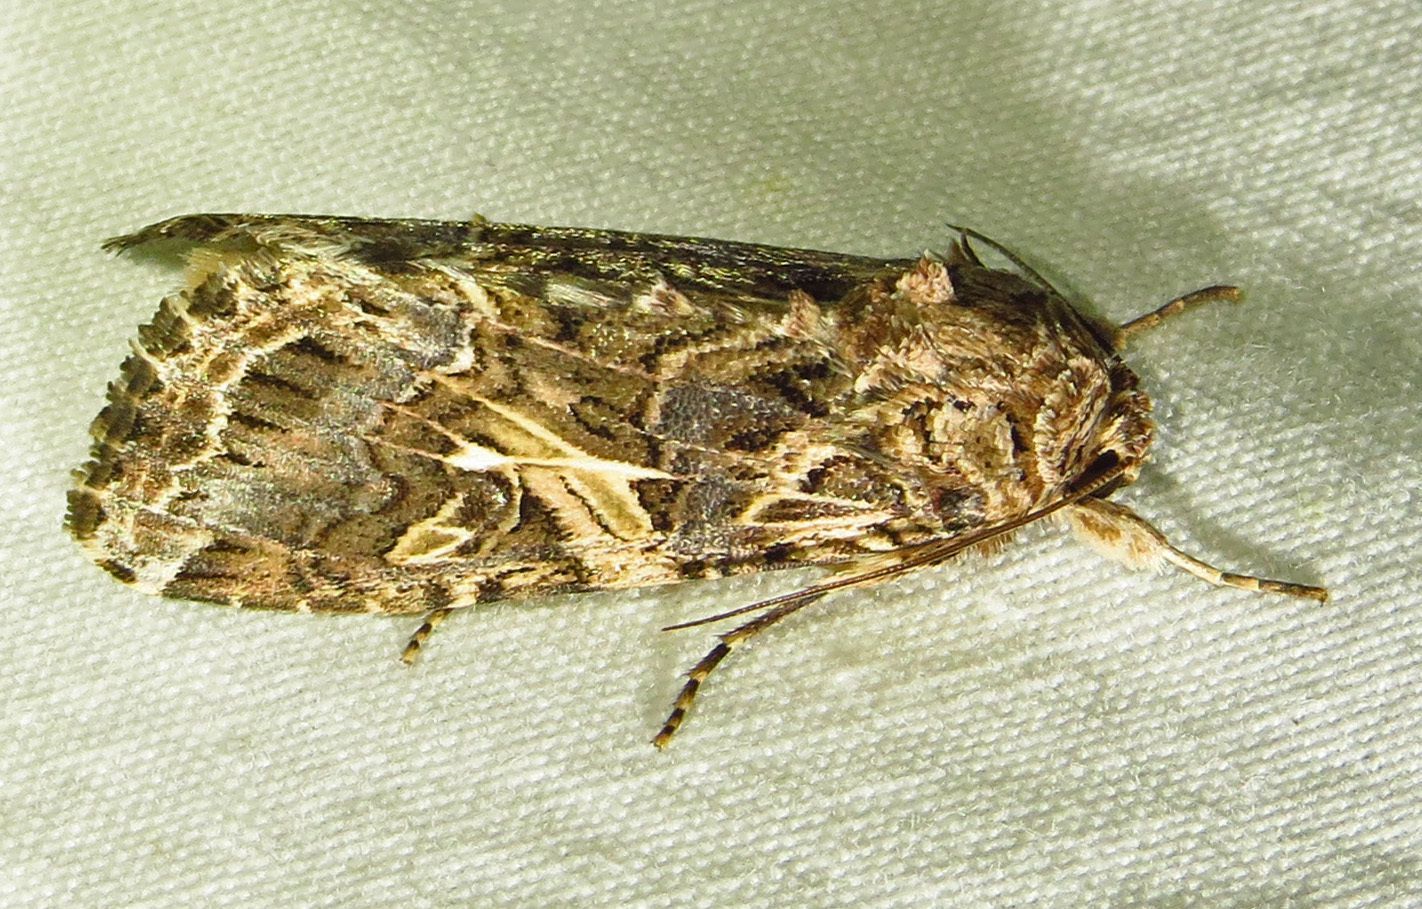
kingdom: Animalia
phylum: Arthropoda
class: Insecta
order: Lepidoptera
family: Noctuidae
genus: Spodoptera
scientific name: Spodoptera ornithogalli
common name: Yellow-striped armyworm
